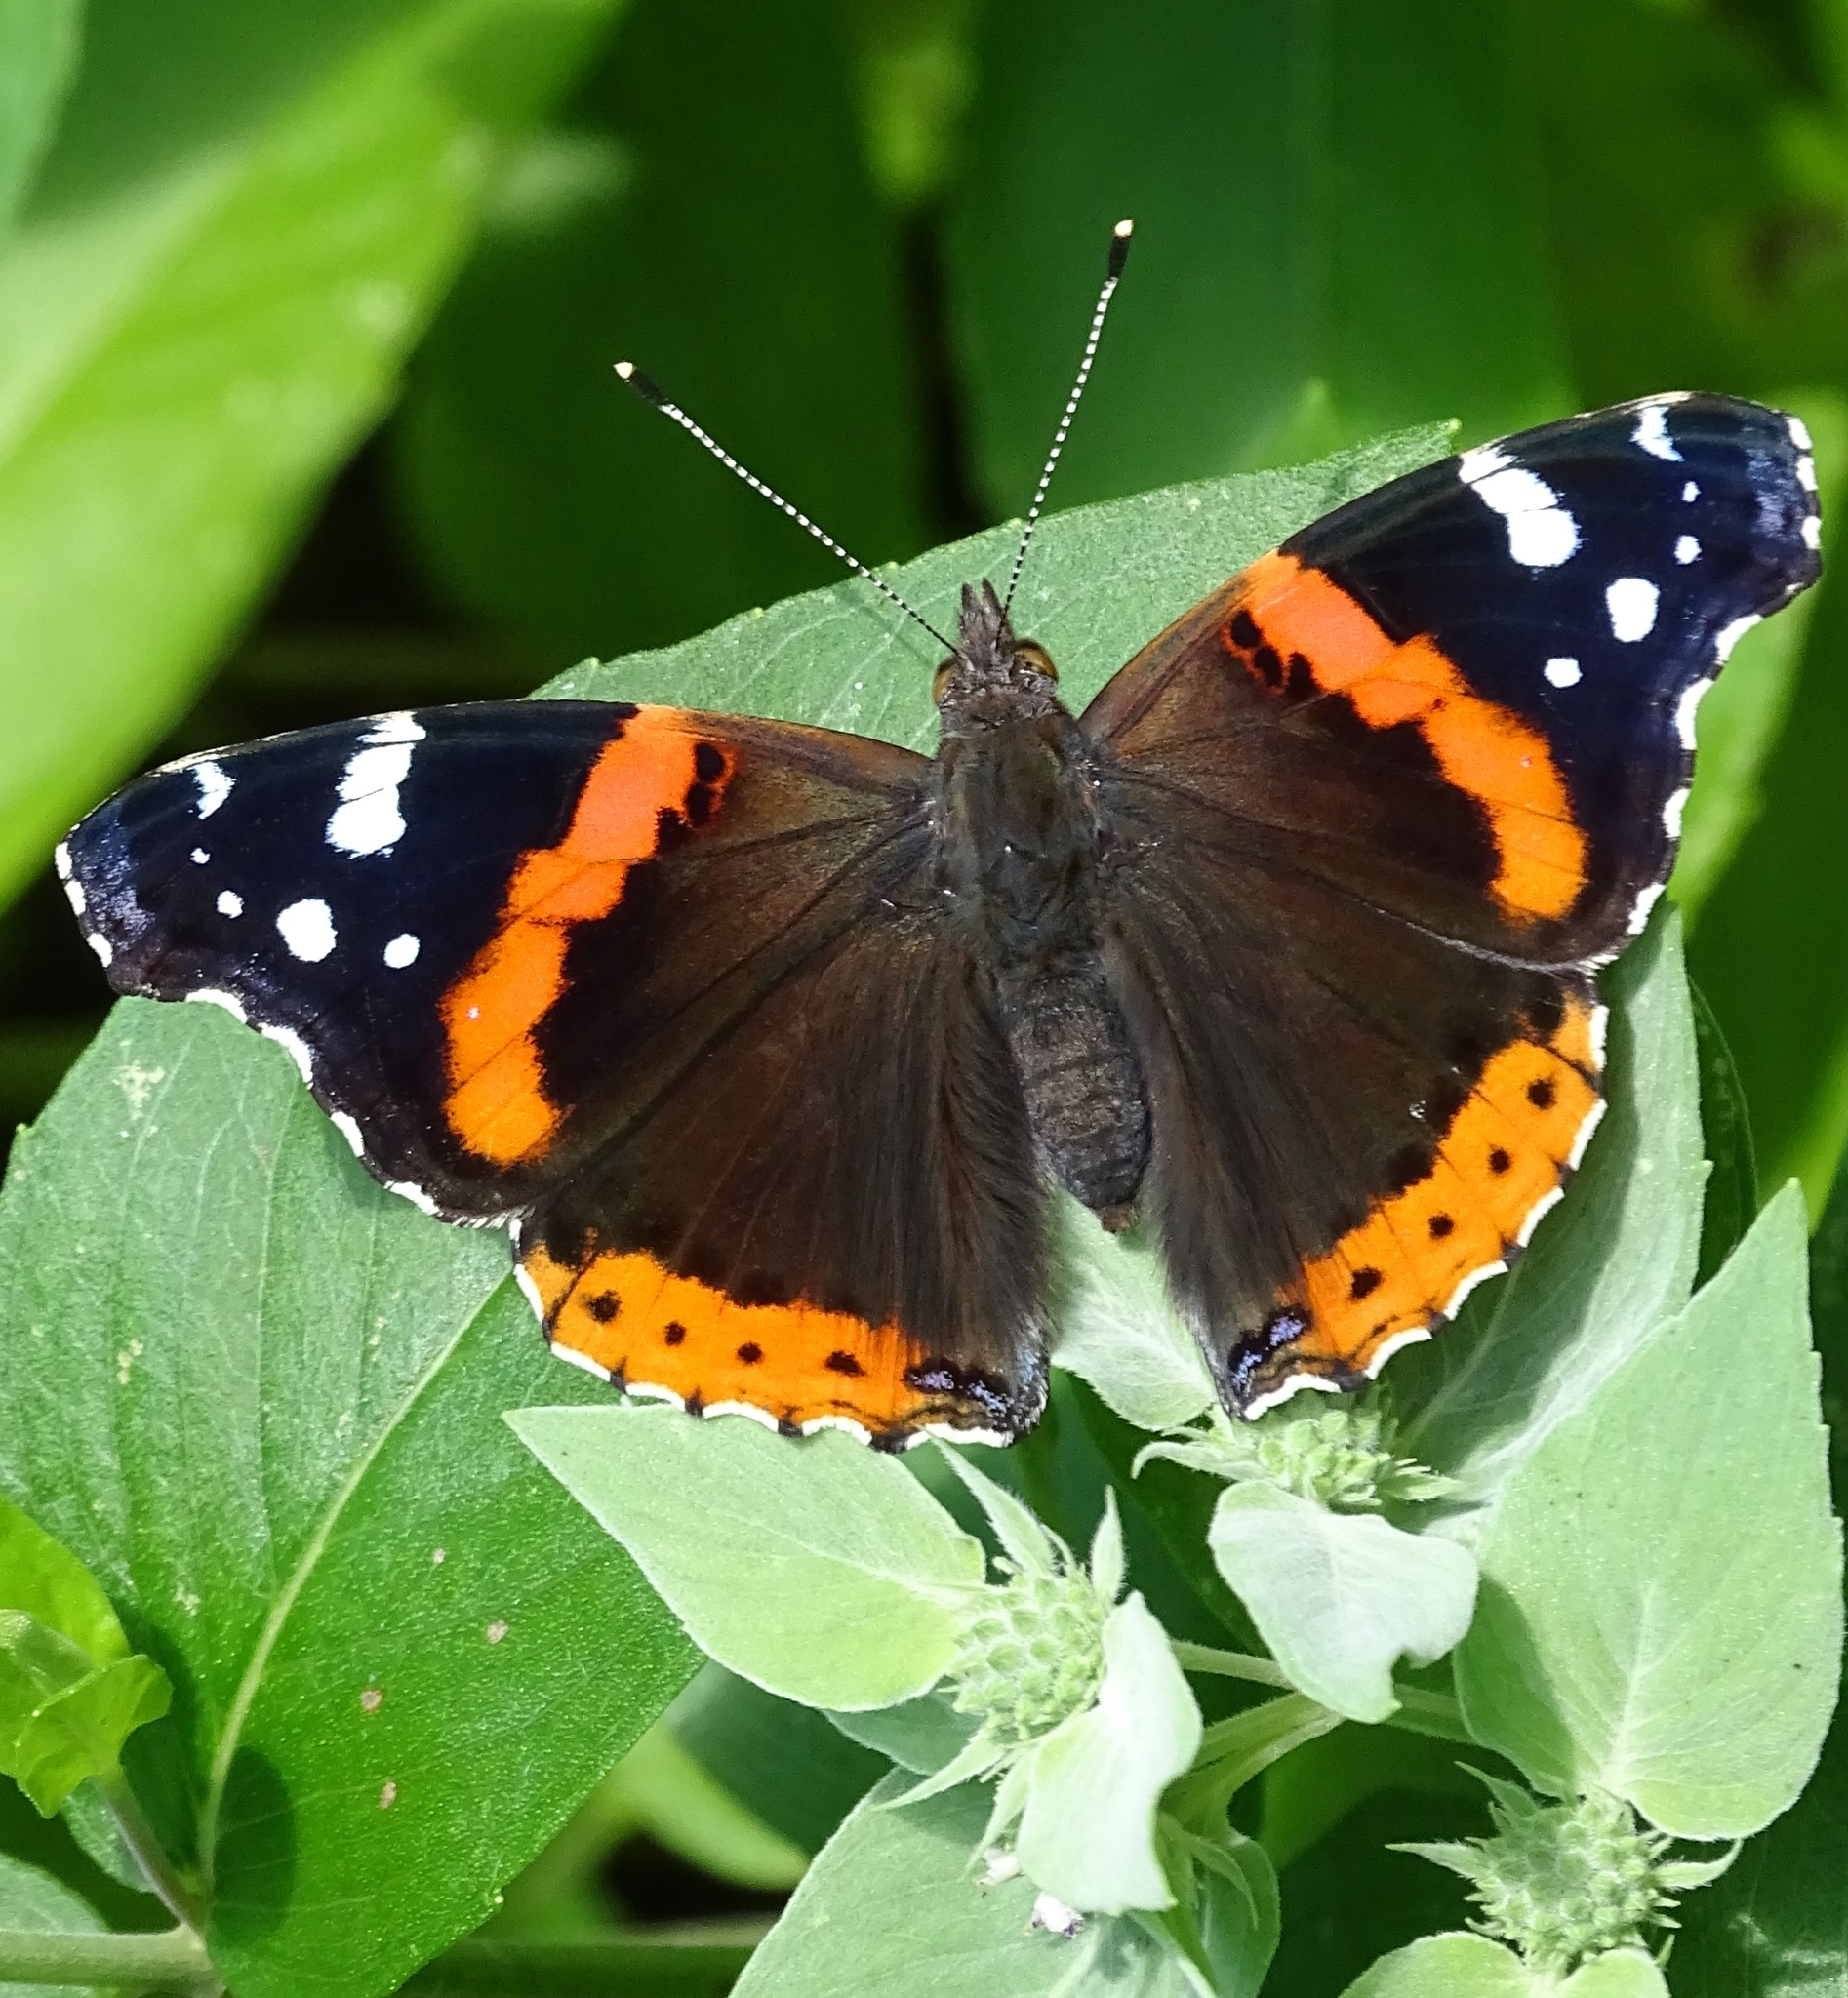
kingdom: Animalia
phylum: Arthropoda
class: Insecta
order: Lepidoptera
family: Nymphalidae
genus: Vanessa
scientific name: Vanessa atalanta
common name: Red admiral
